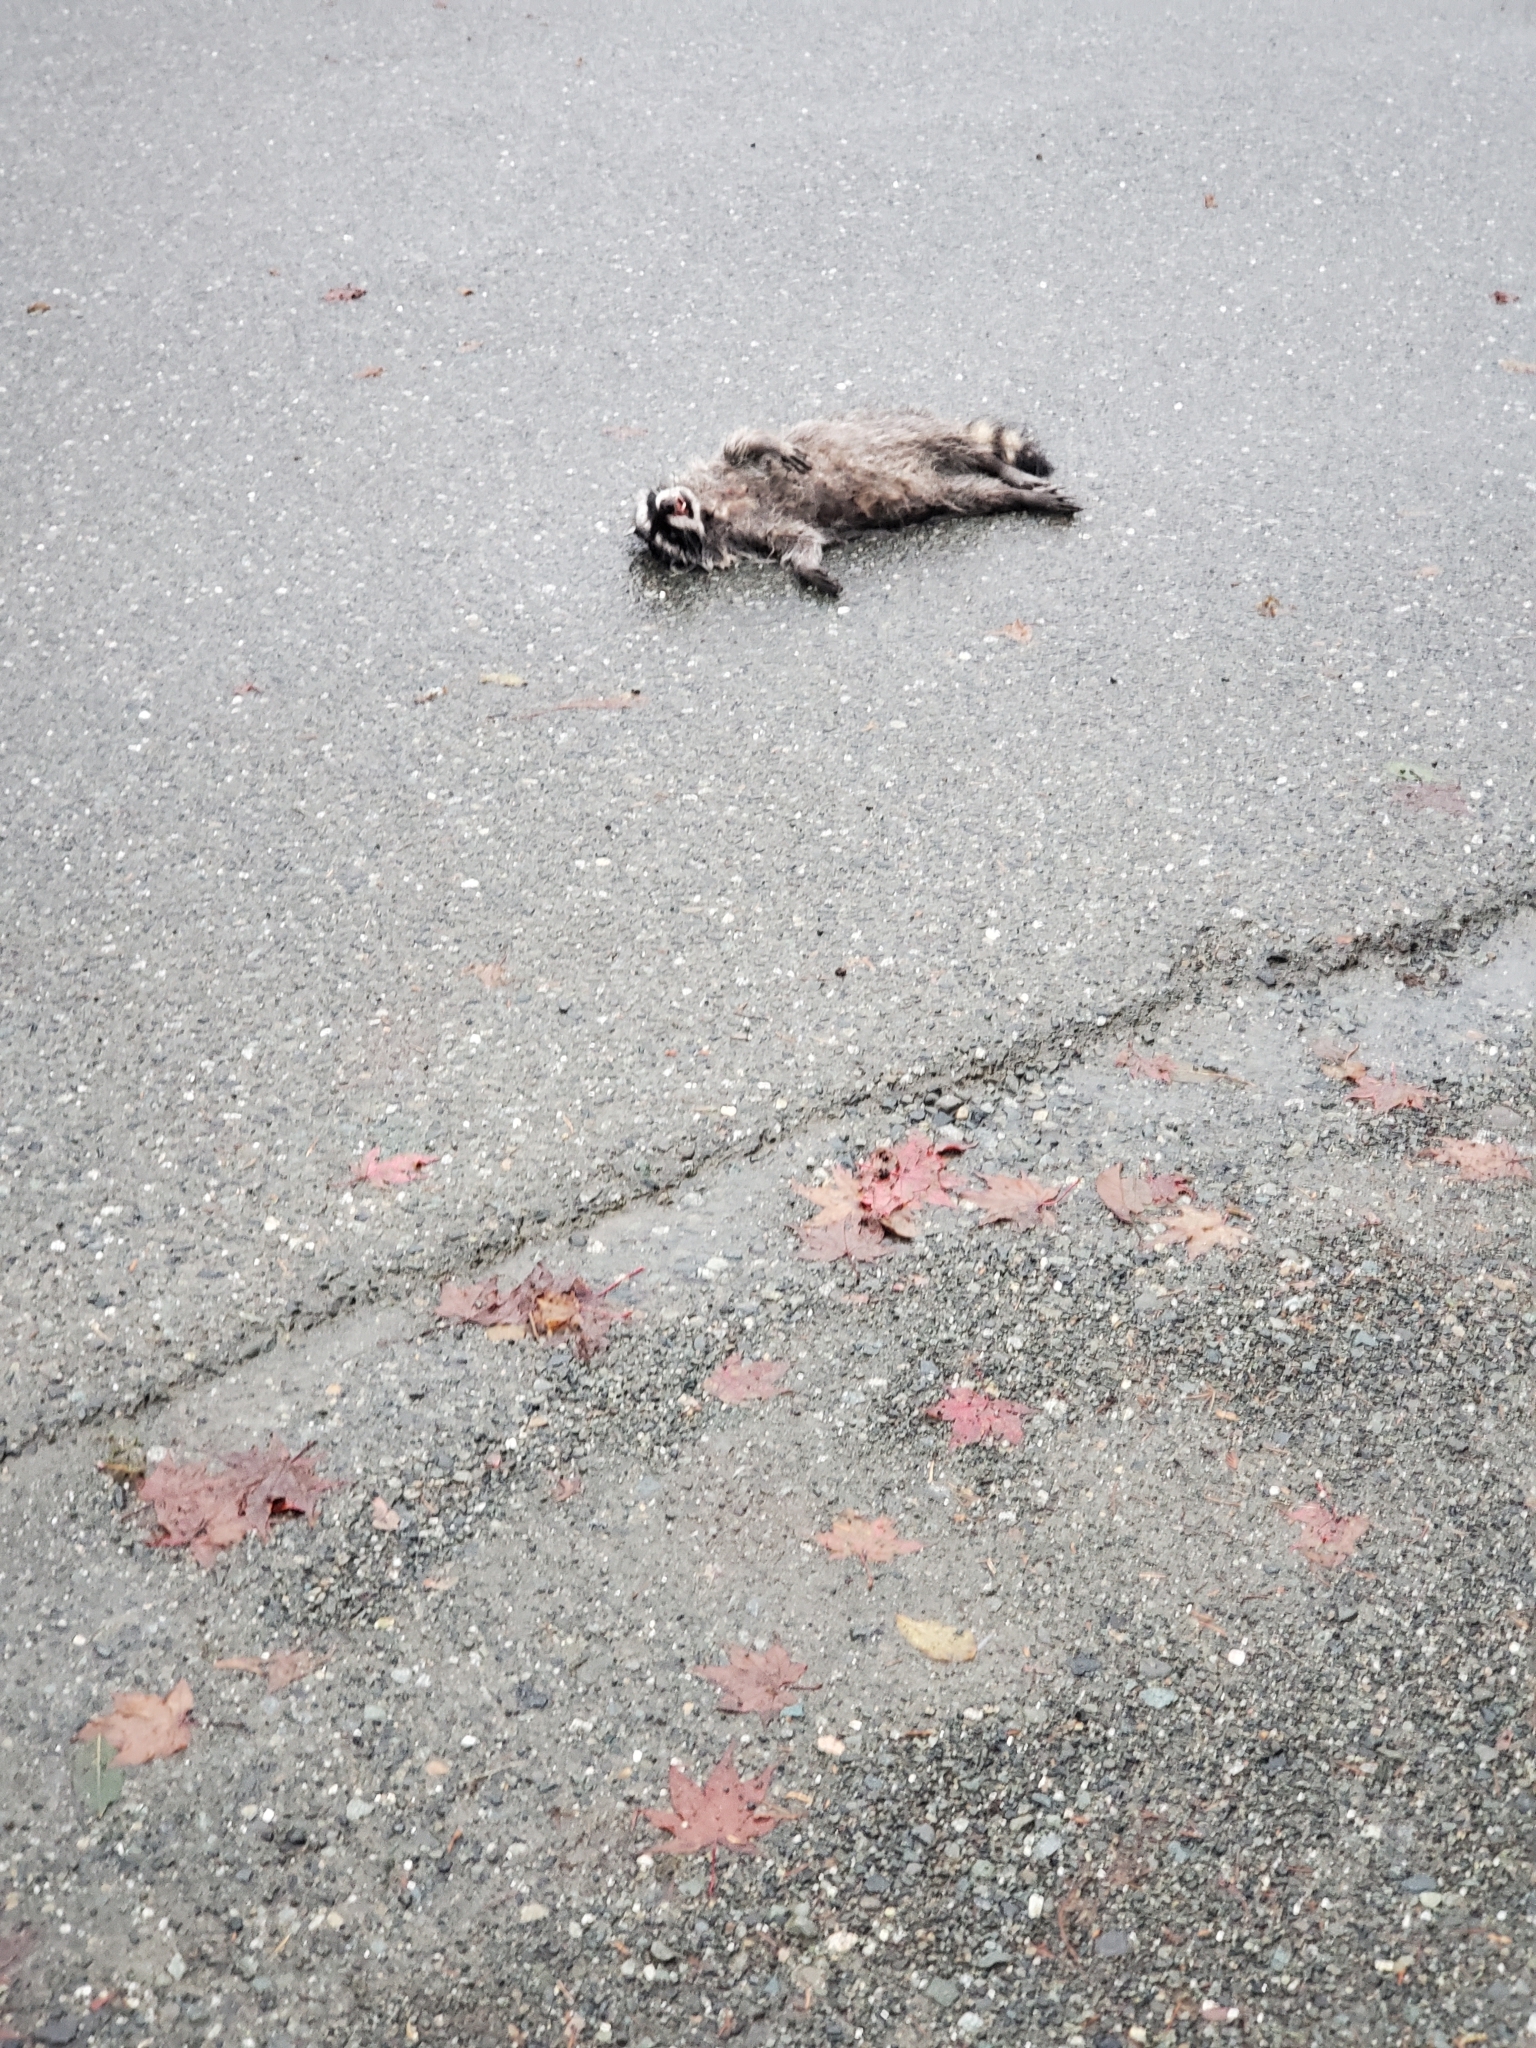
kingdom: Animalia
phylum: Chordata
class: Mammalia
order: Carnivora
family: Procyonidae
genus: Procyon
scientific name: Procyon lotor
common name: Raccoon
